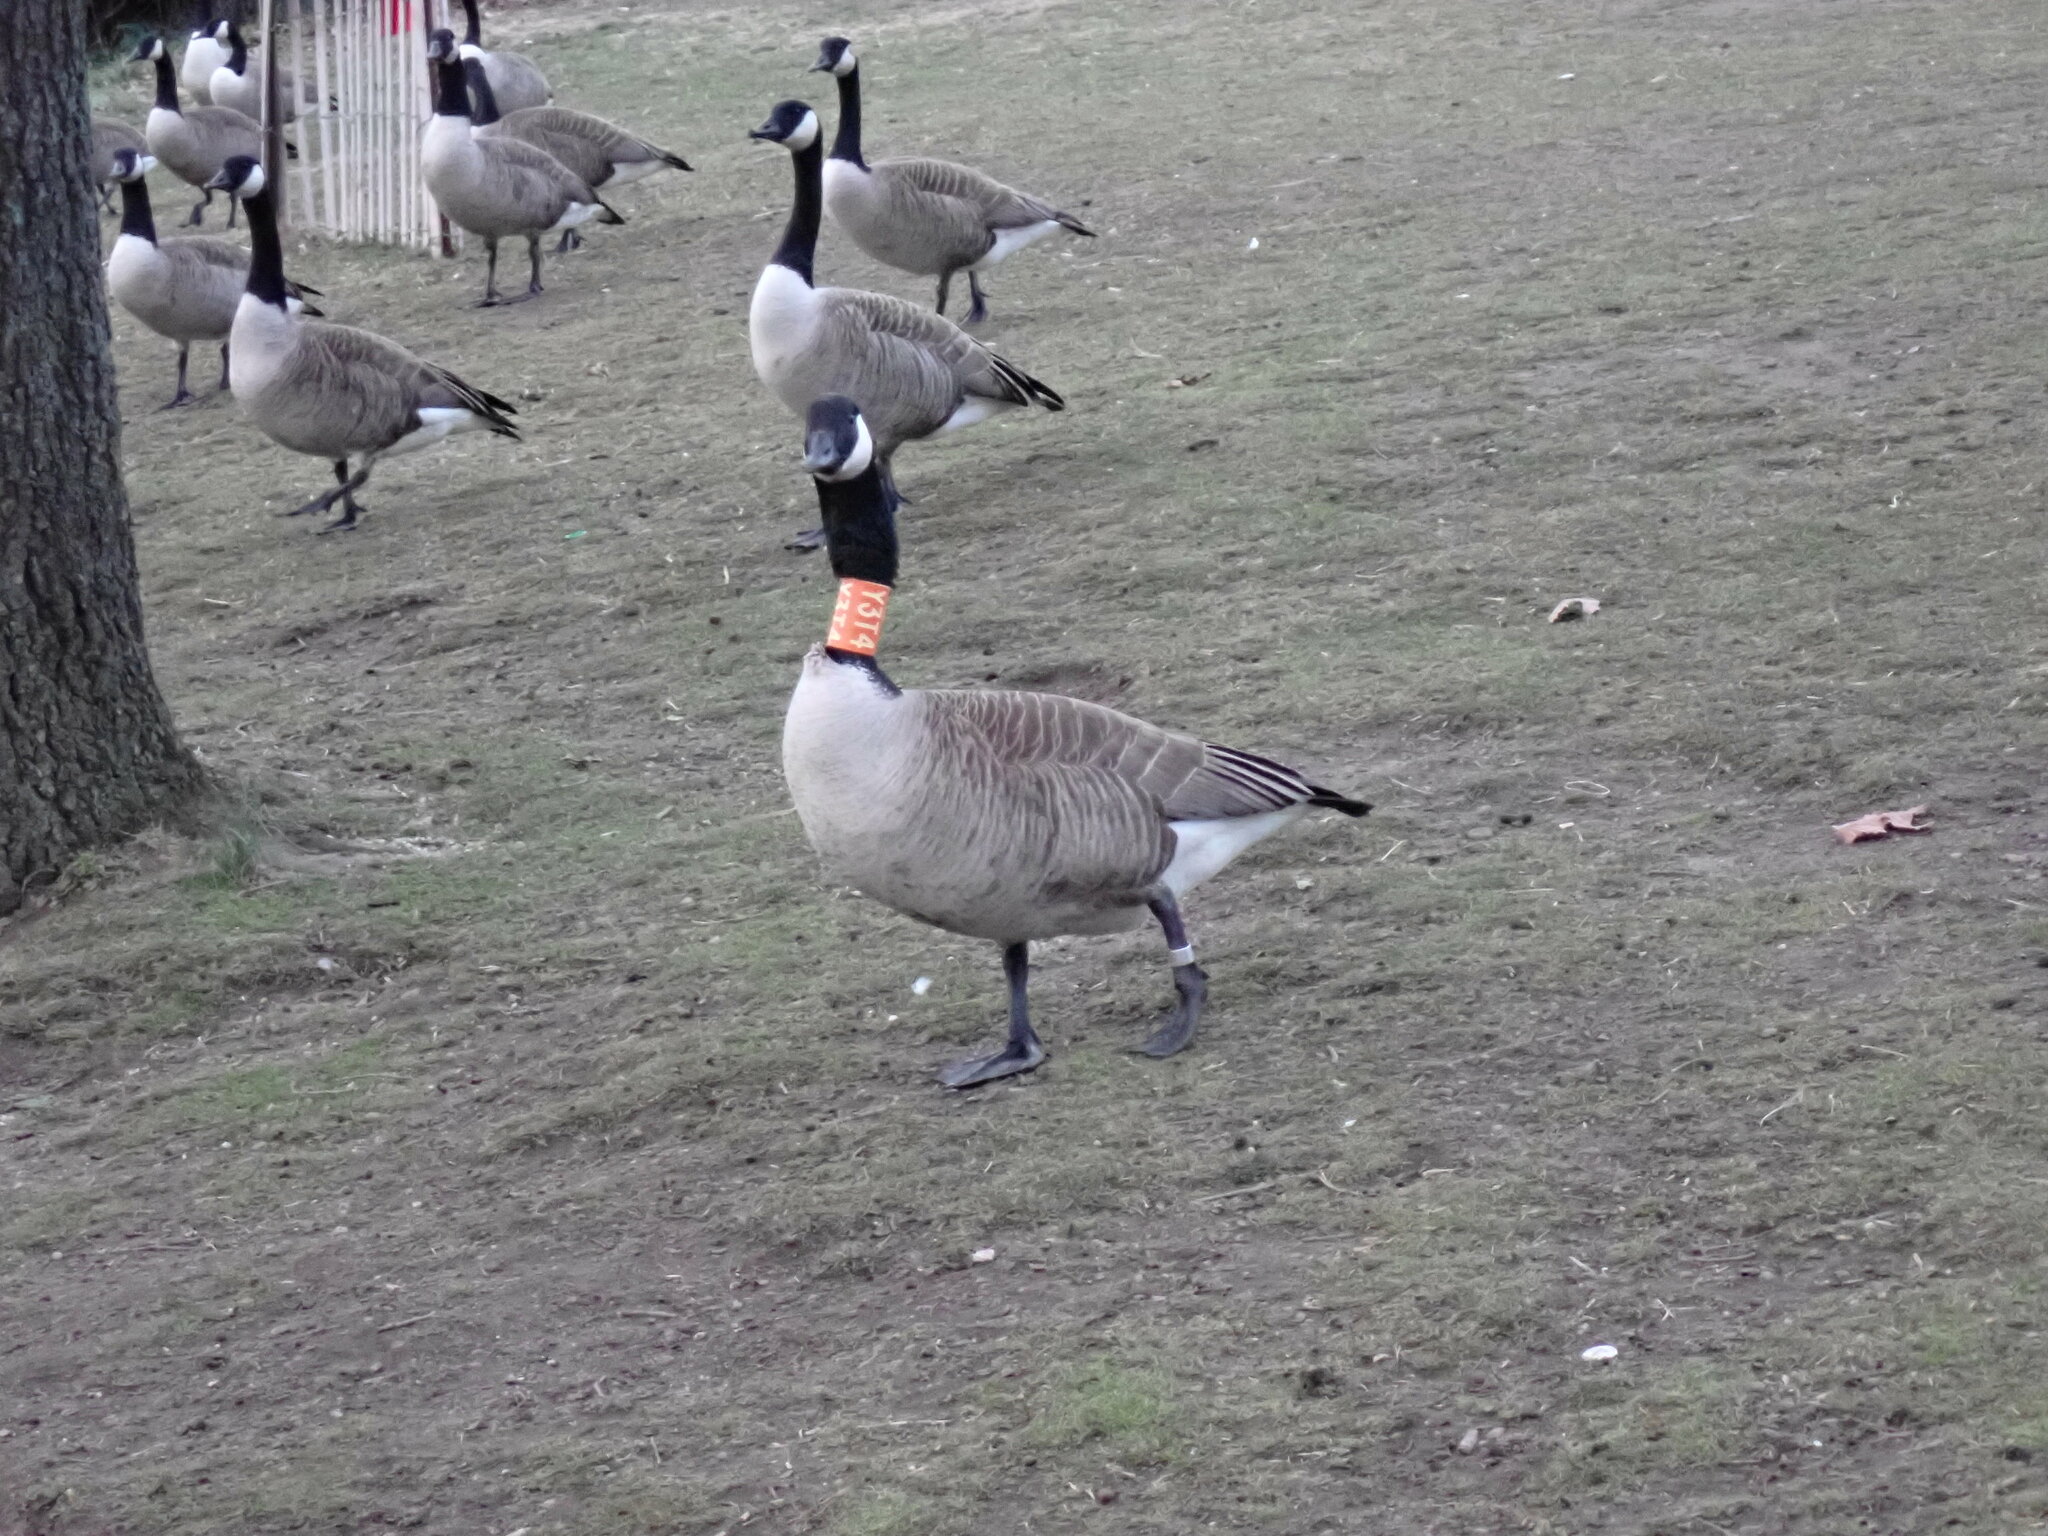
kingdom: Animalia
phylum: Chordata
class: Aves
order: Anseriformes
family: Anatidae
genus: Branta
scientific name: Branta canadensis
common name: Canada goose
